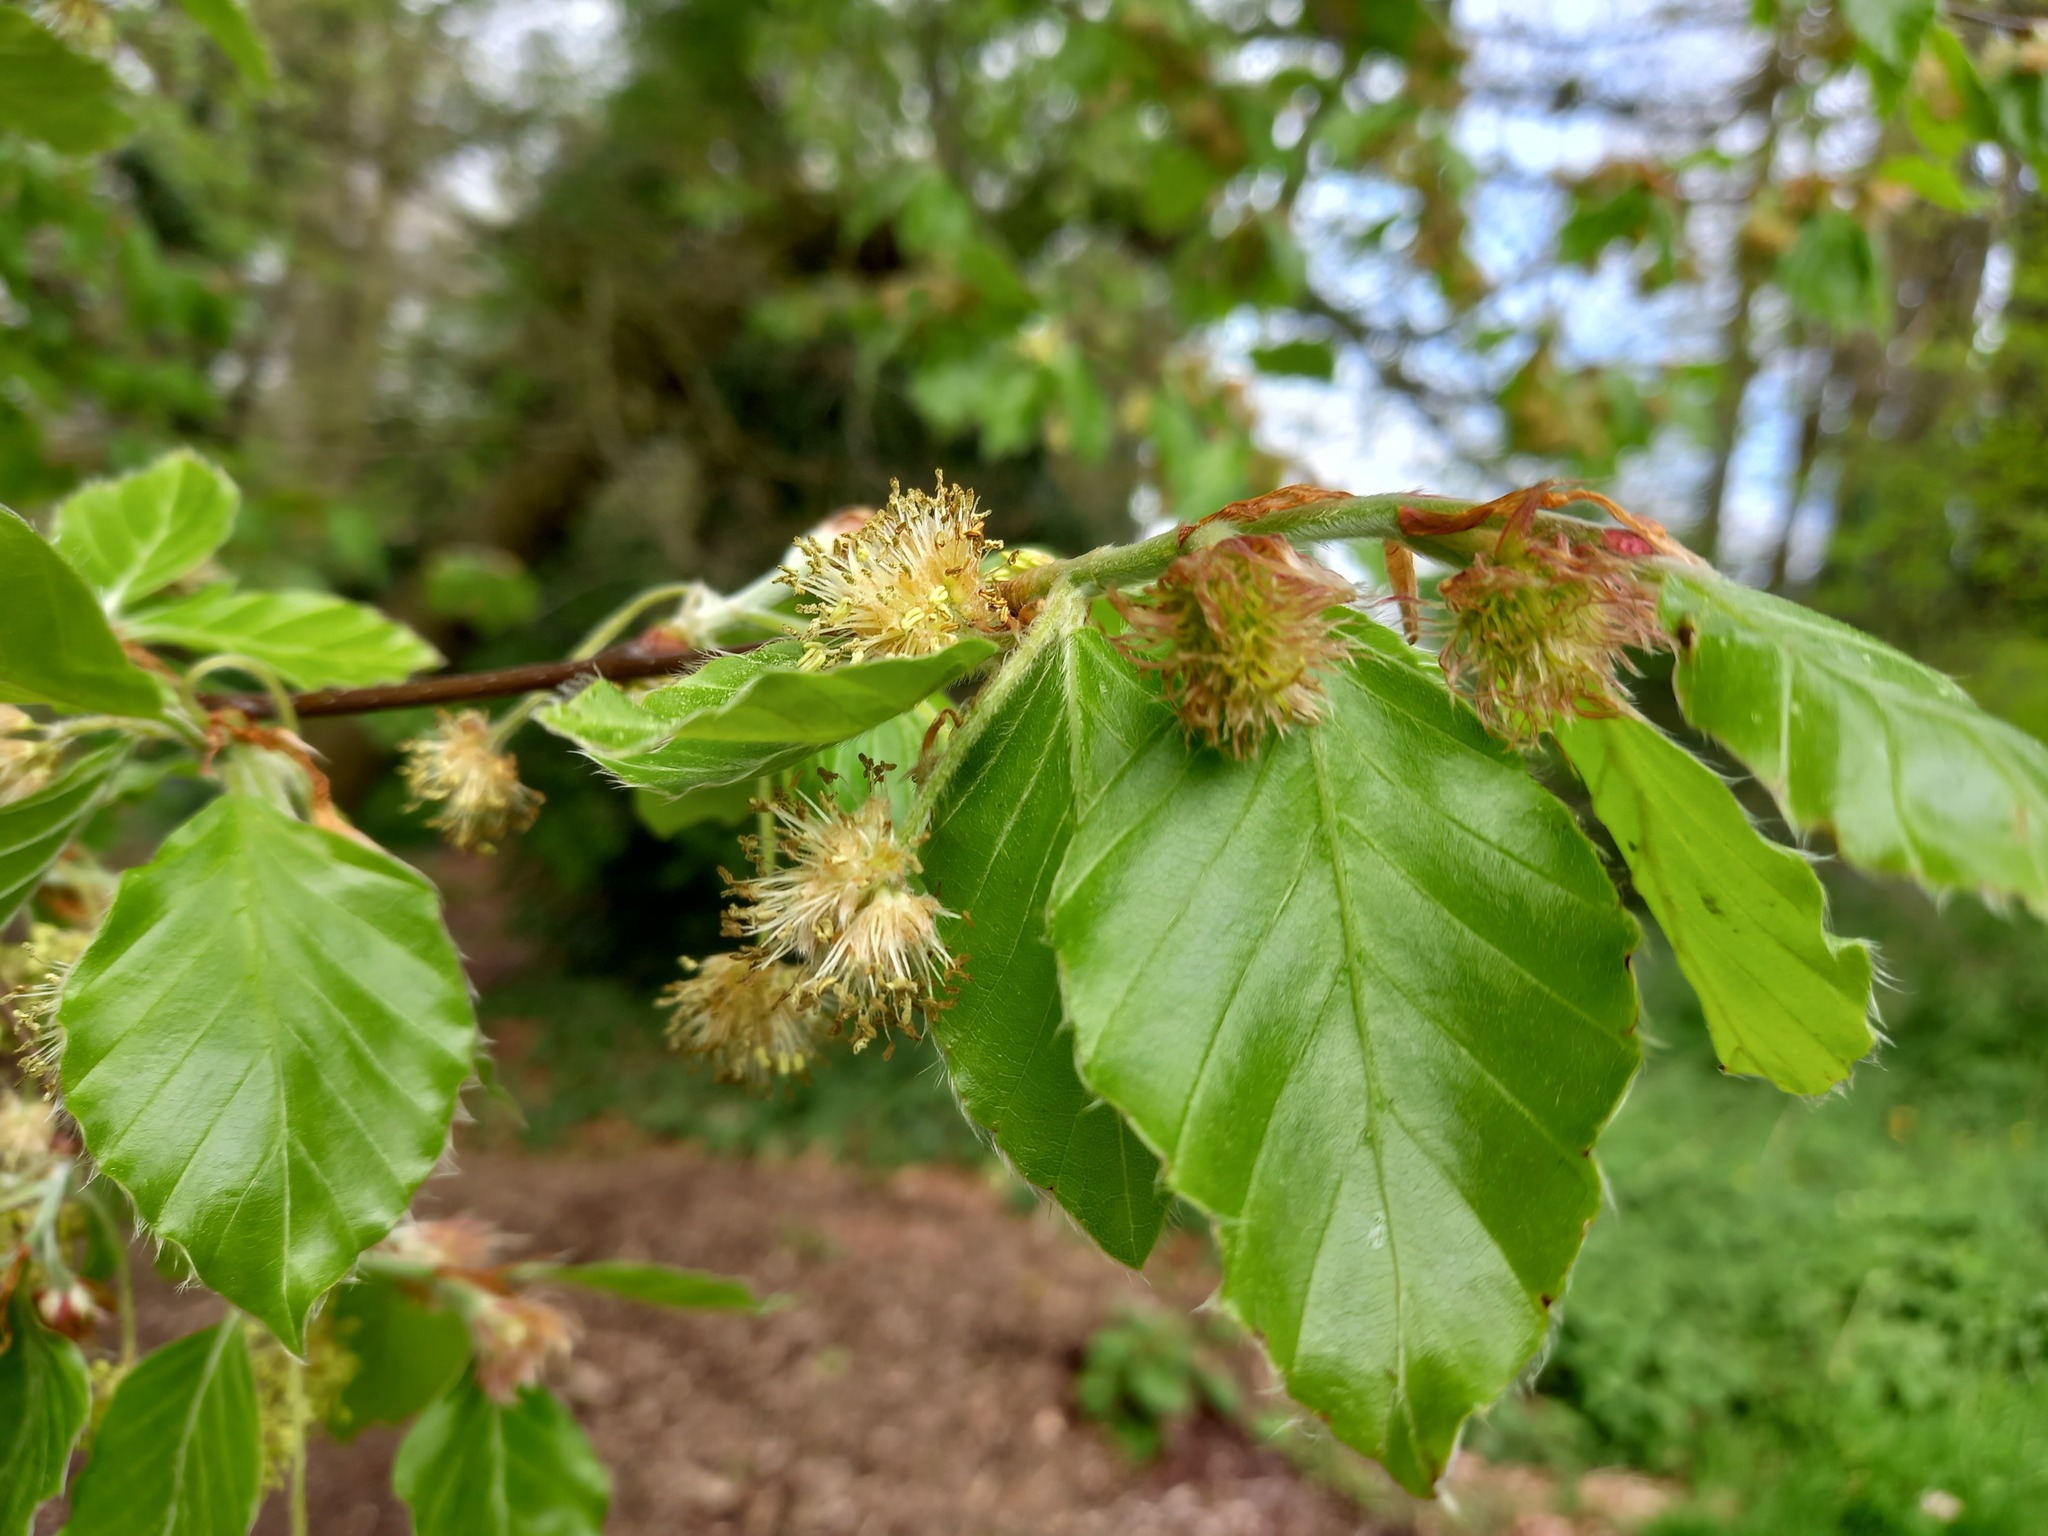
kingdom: Plantae
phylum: Tracheophyta
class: Magnoliopsida
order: Fagales
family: Fagaceae
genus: Fagus
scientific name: Fagus sylvatica
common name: Beech
